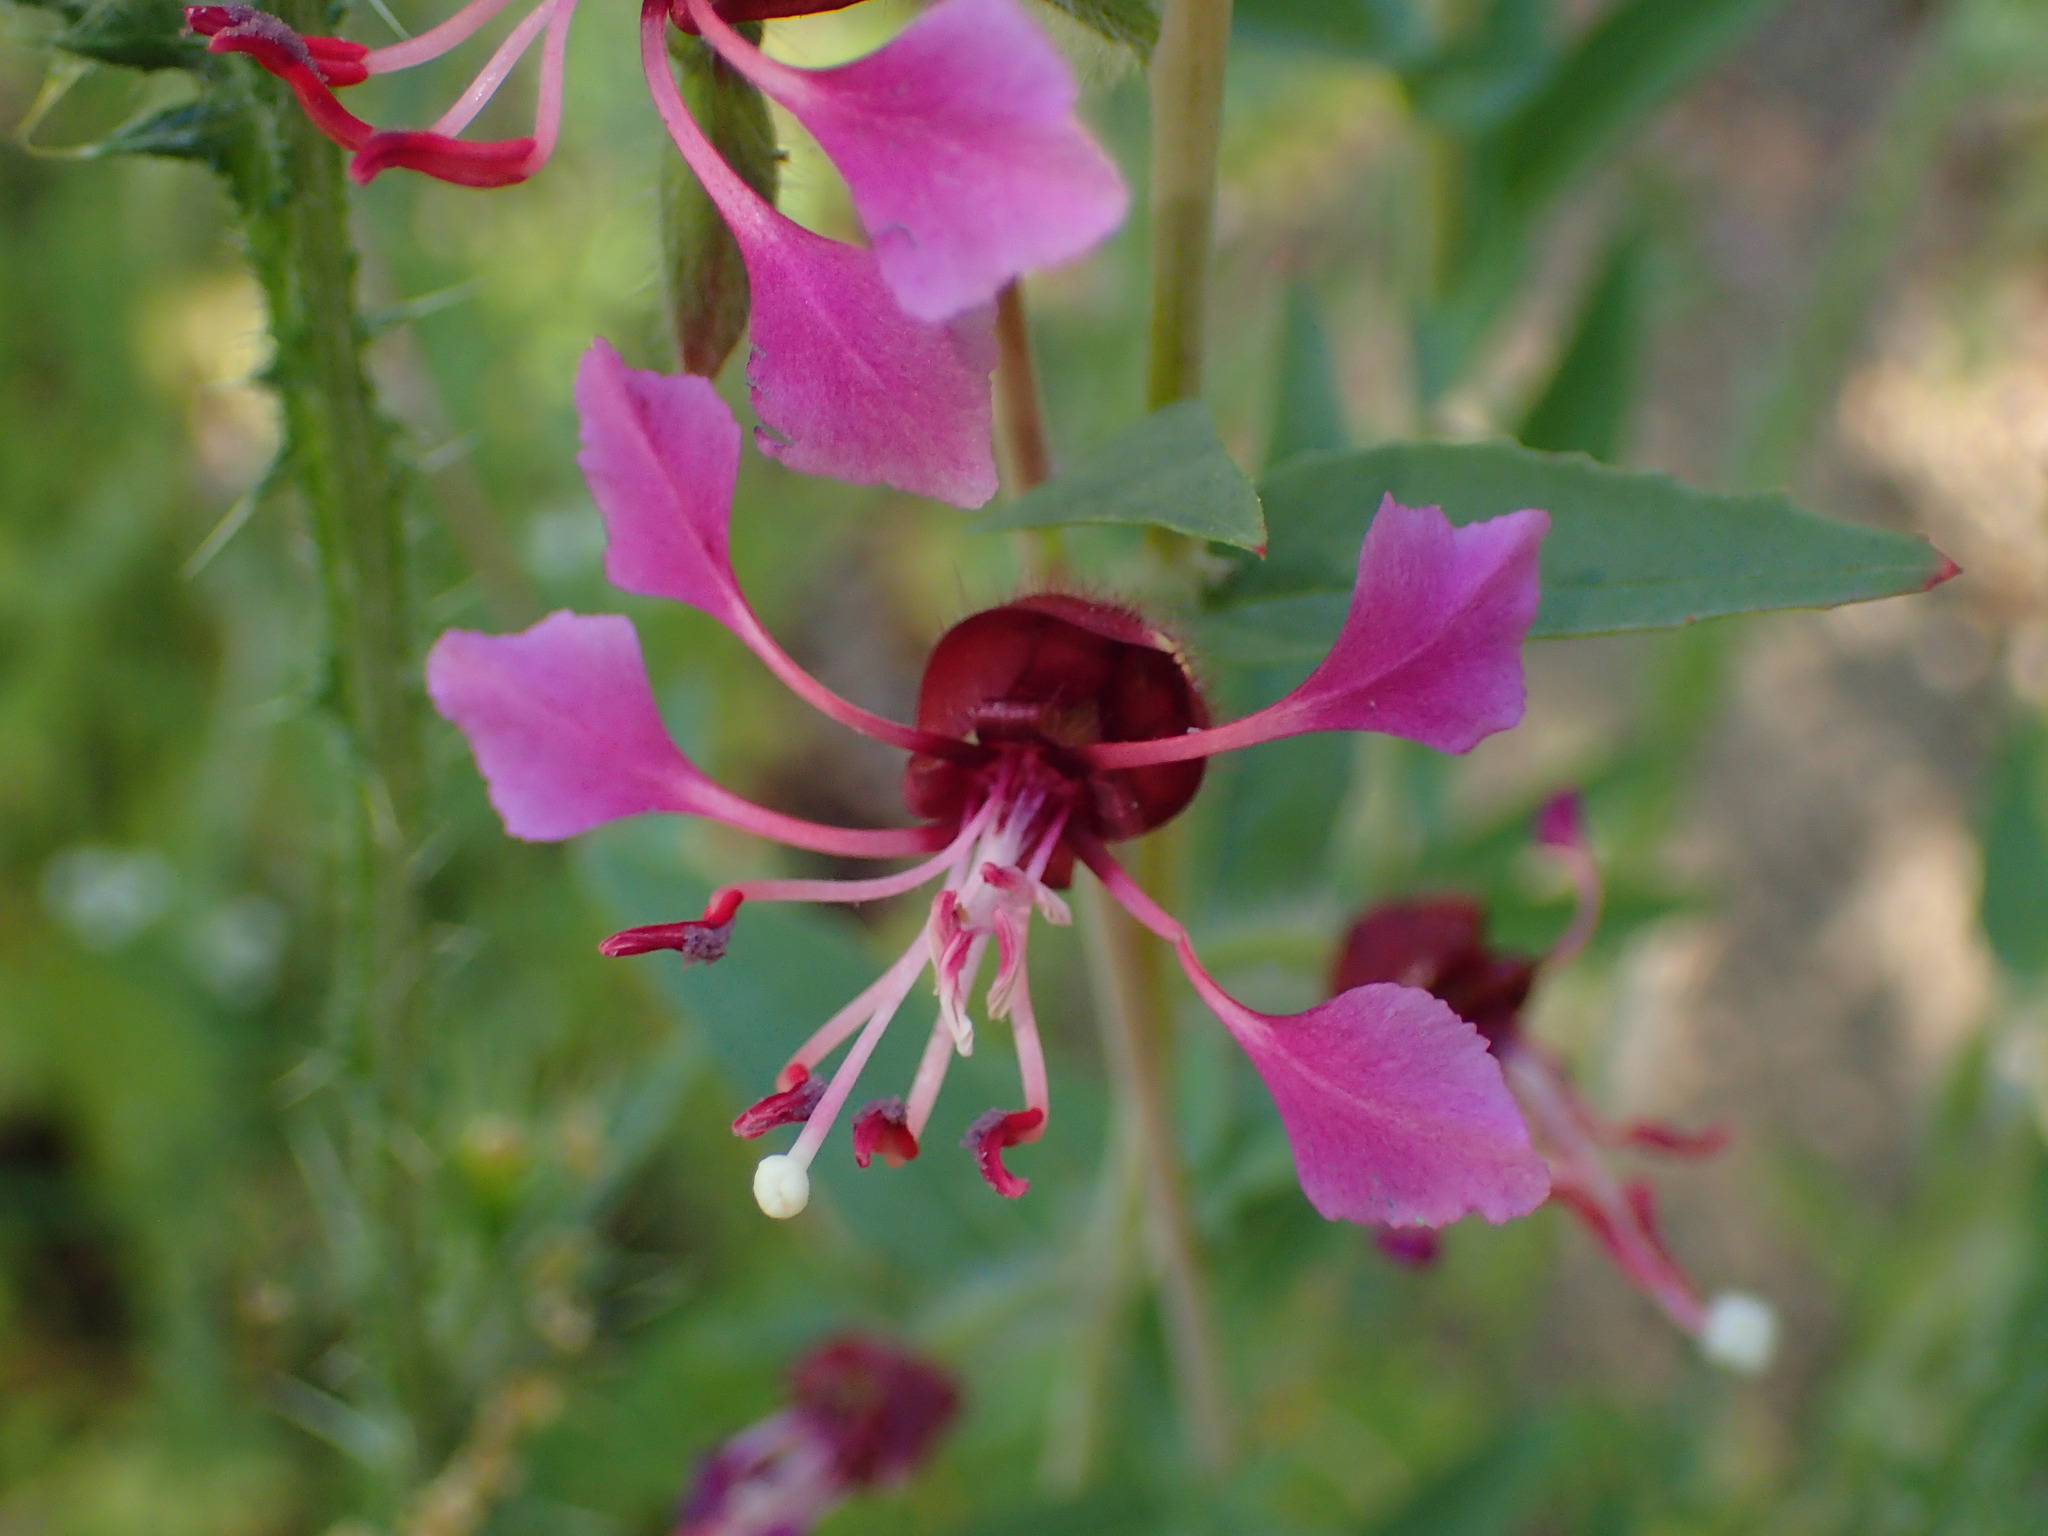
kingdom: Plantae
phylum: Tracheophyta
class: Magnoliopsida
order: Myrtales
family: Onagraceae
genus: Clarkia
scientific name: Clarkia unguiculata
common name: Clarkia
